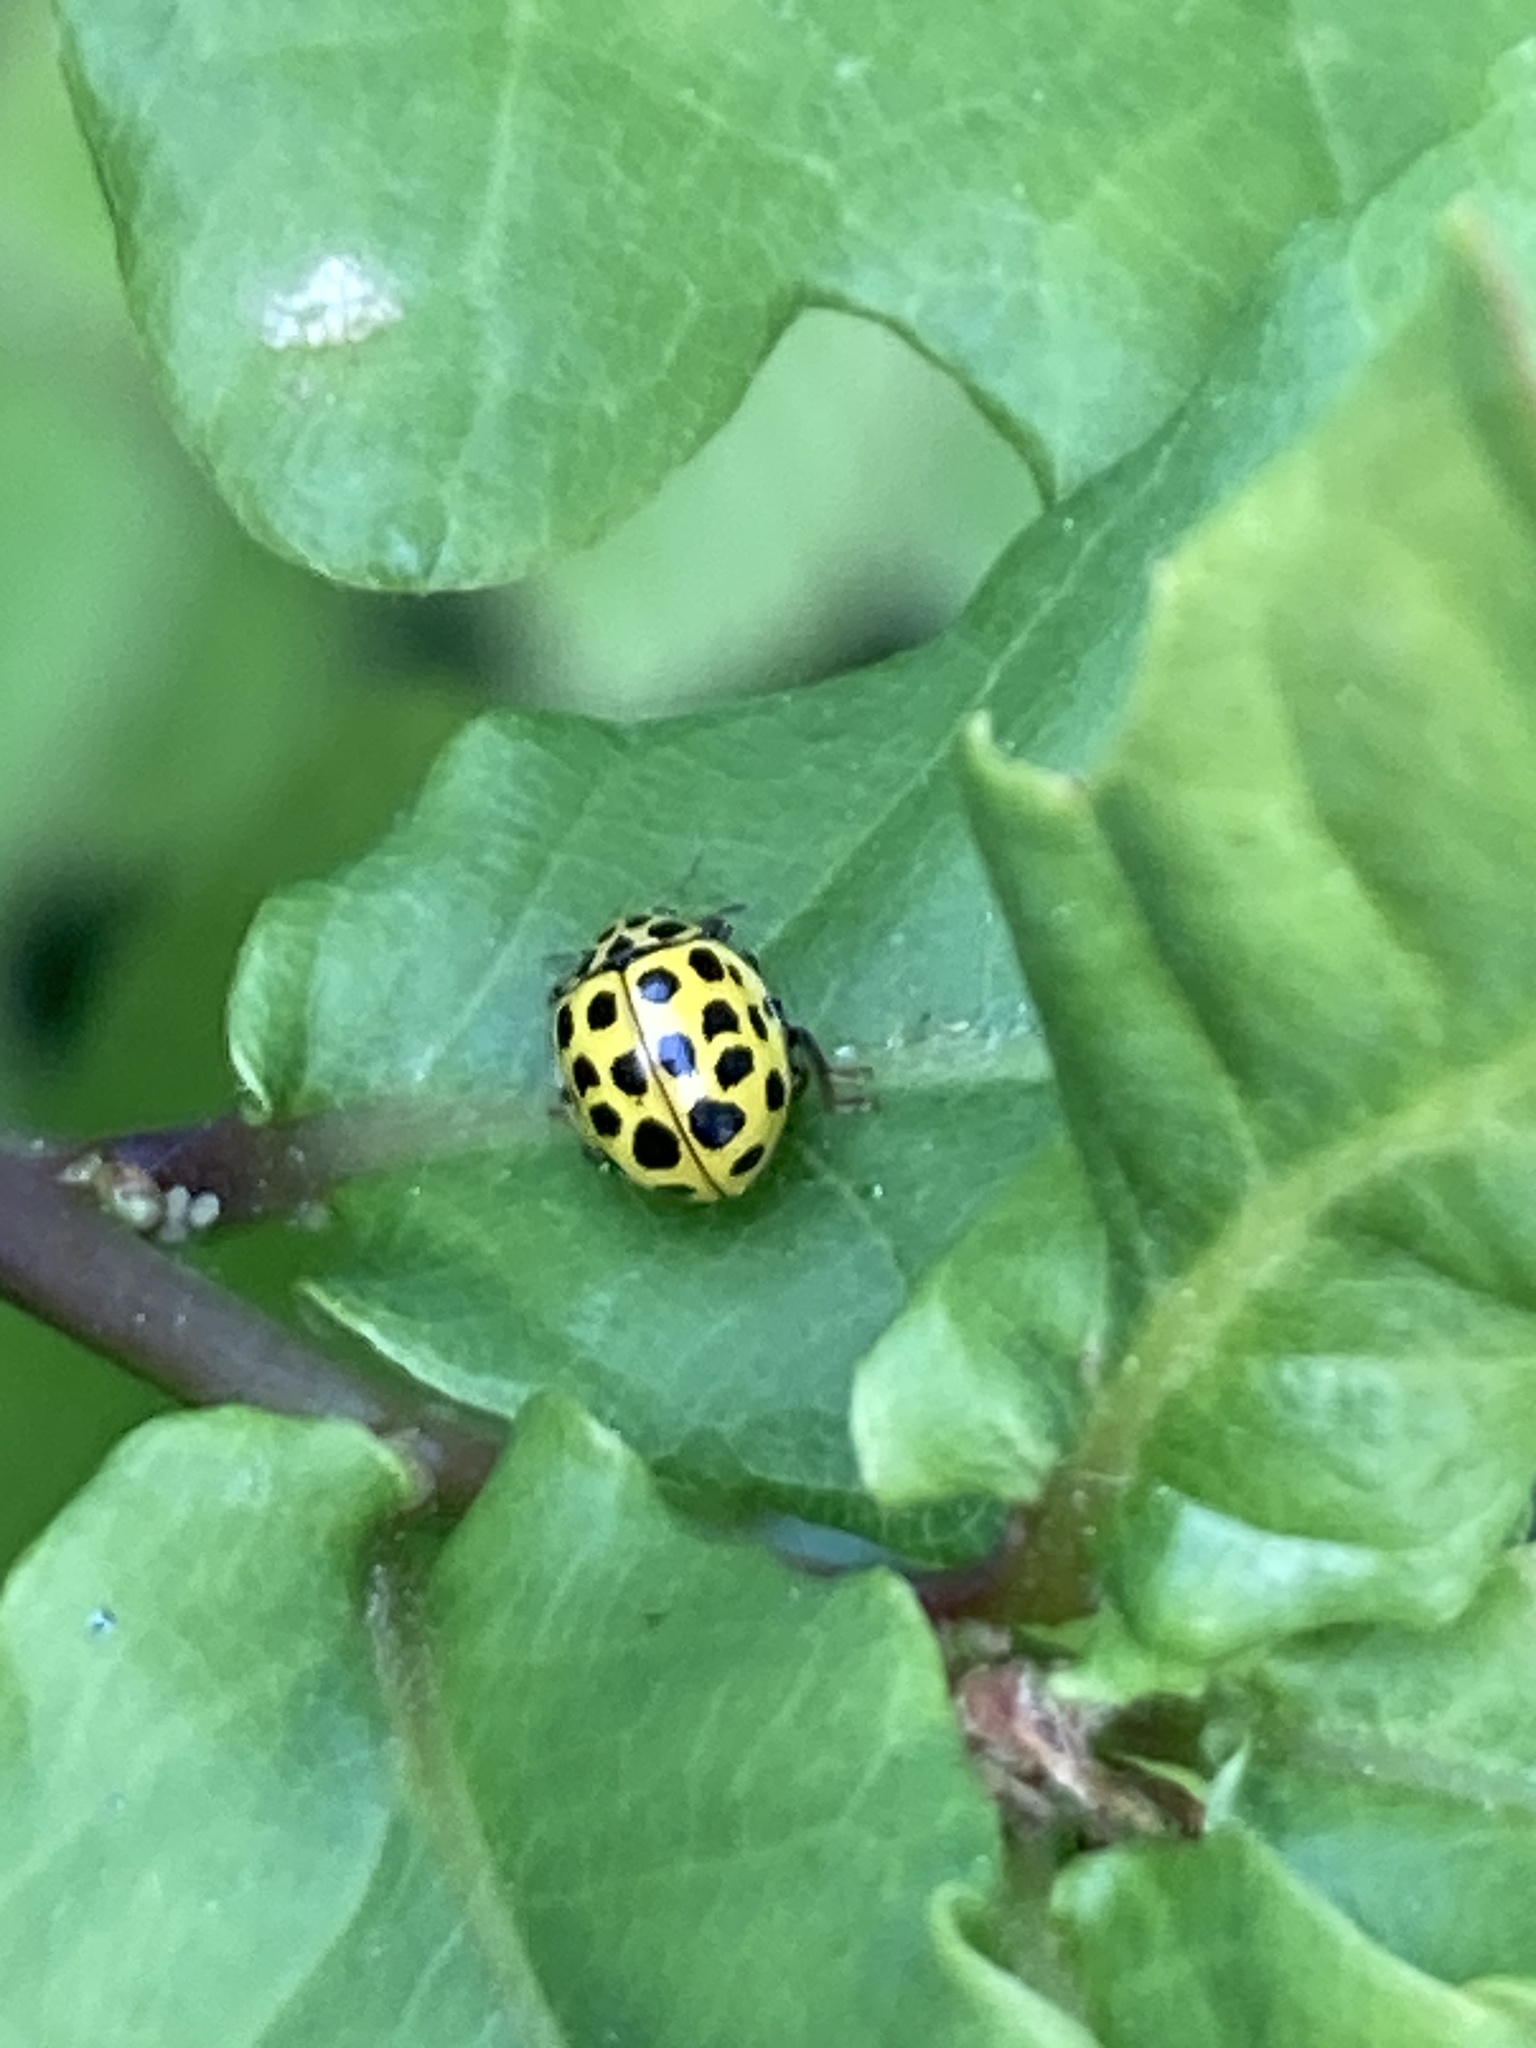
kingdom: Animalia
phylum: Arthropoda
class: Insecta
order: Coleoptera
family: Coccinellidae
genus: Psyllobora
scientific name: Psyllobora vigintiduopunctata
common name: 22-spot ladybird
